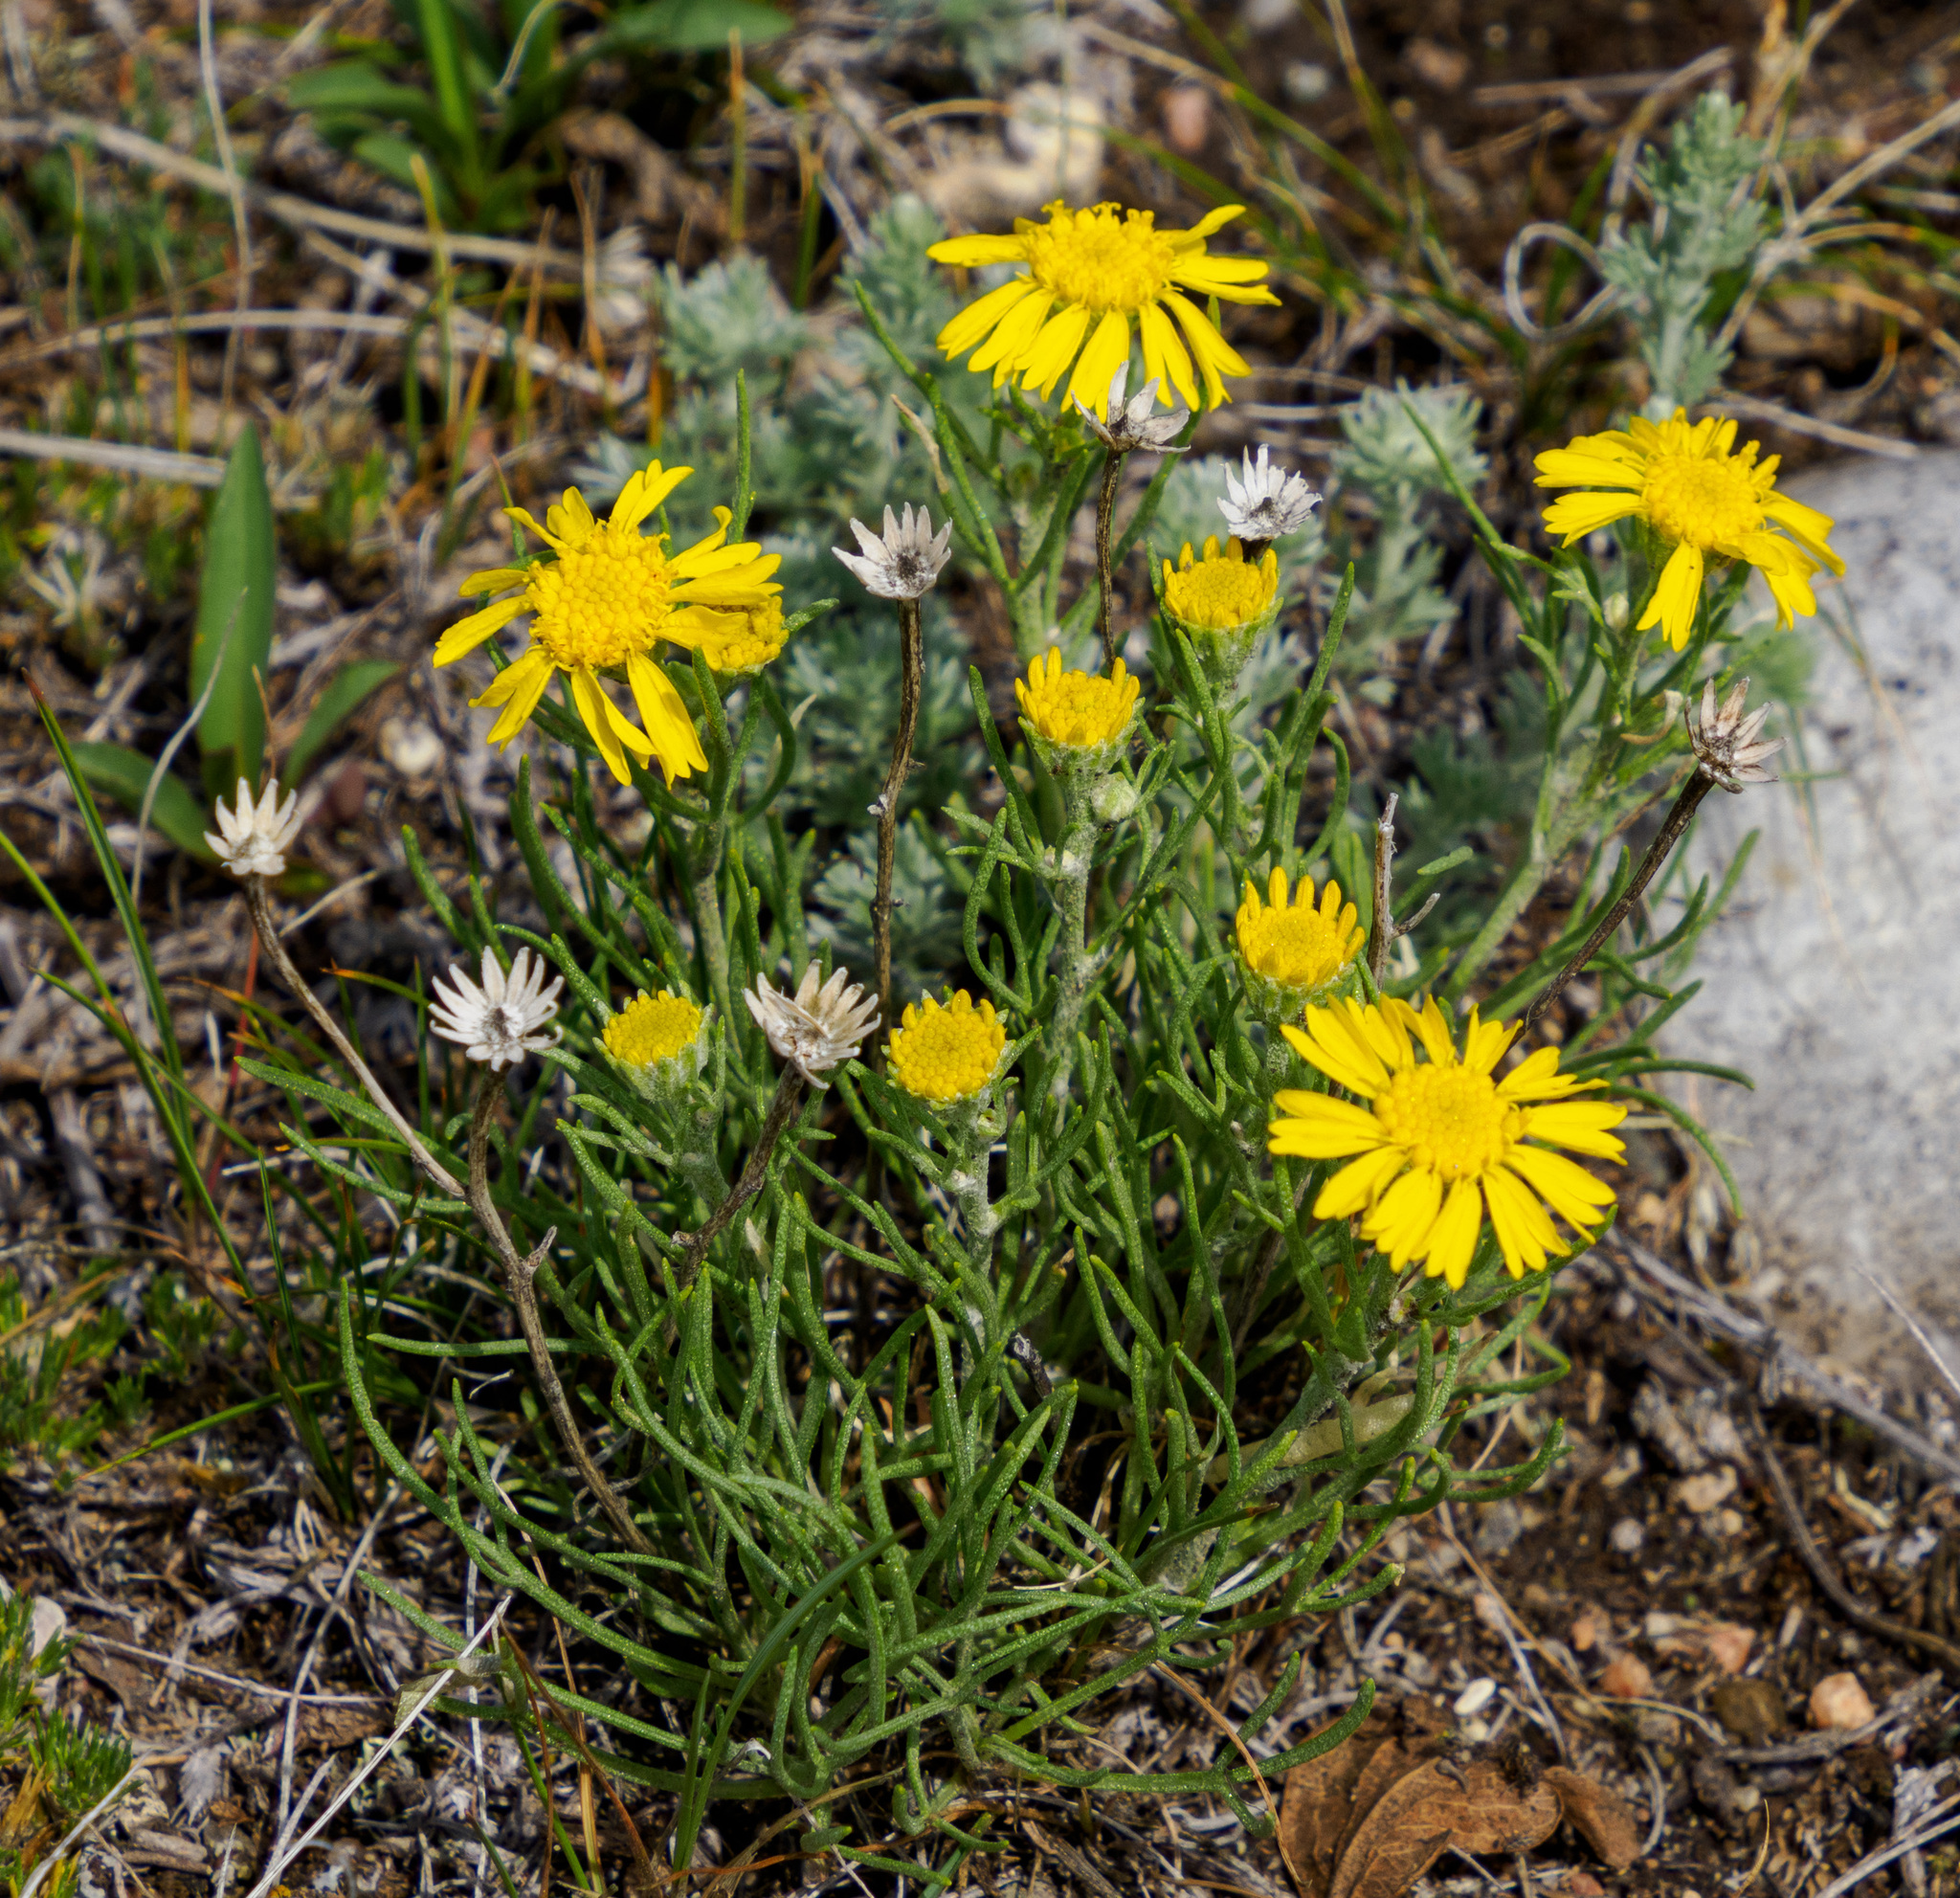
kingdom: Plantae
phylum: Tracheophyta
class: Magnoliopsida
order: Asterales
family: Asteraceae
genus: Hymenoxys
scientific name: Hymenoxys richardsonii
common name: Pingue rubberweed
